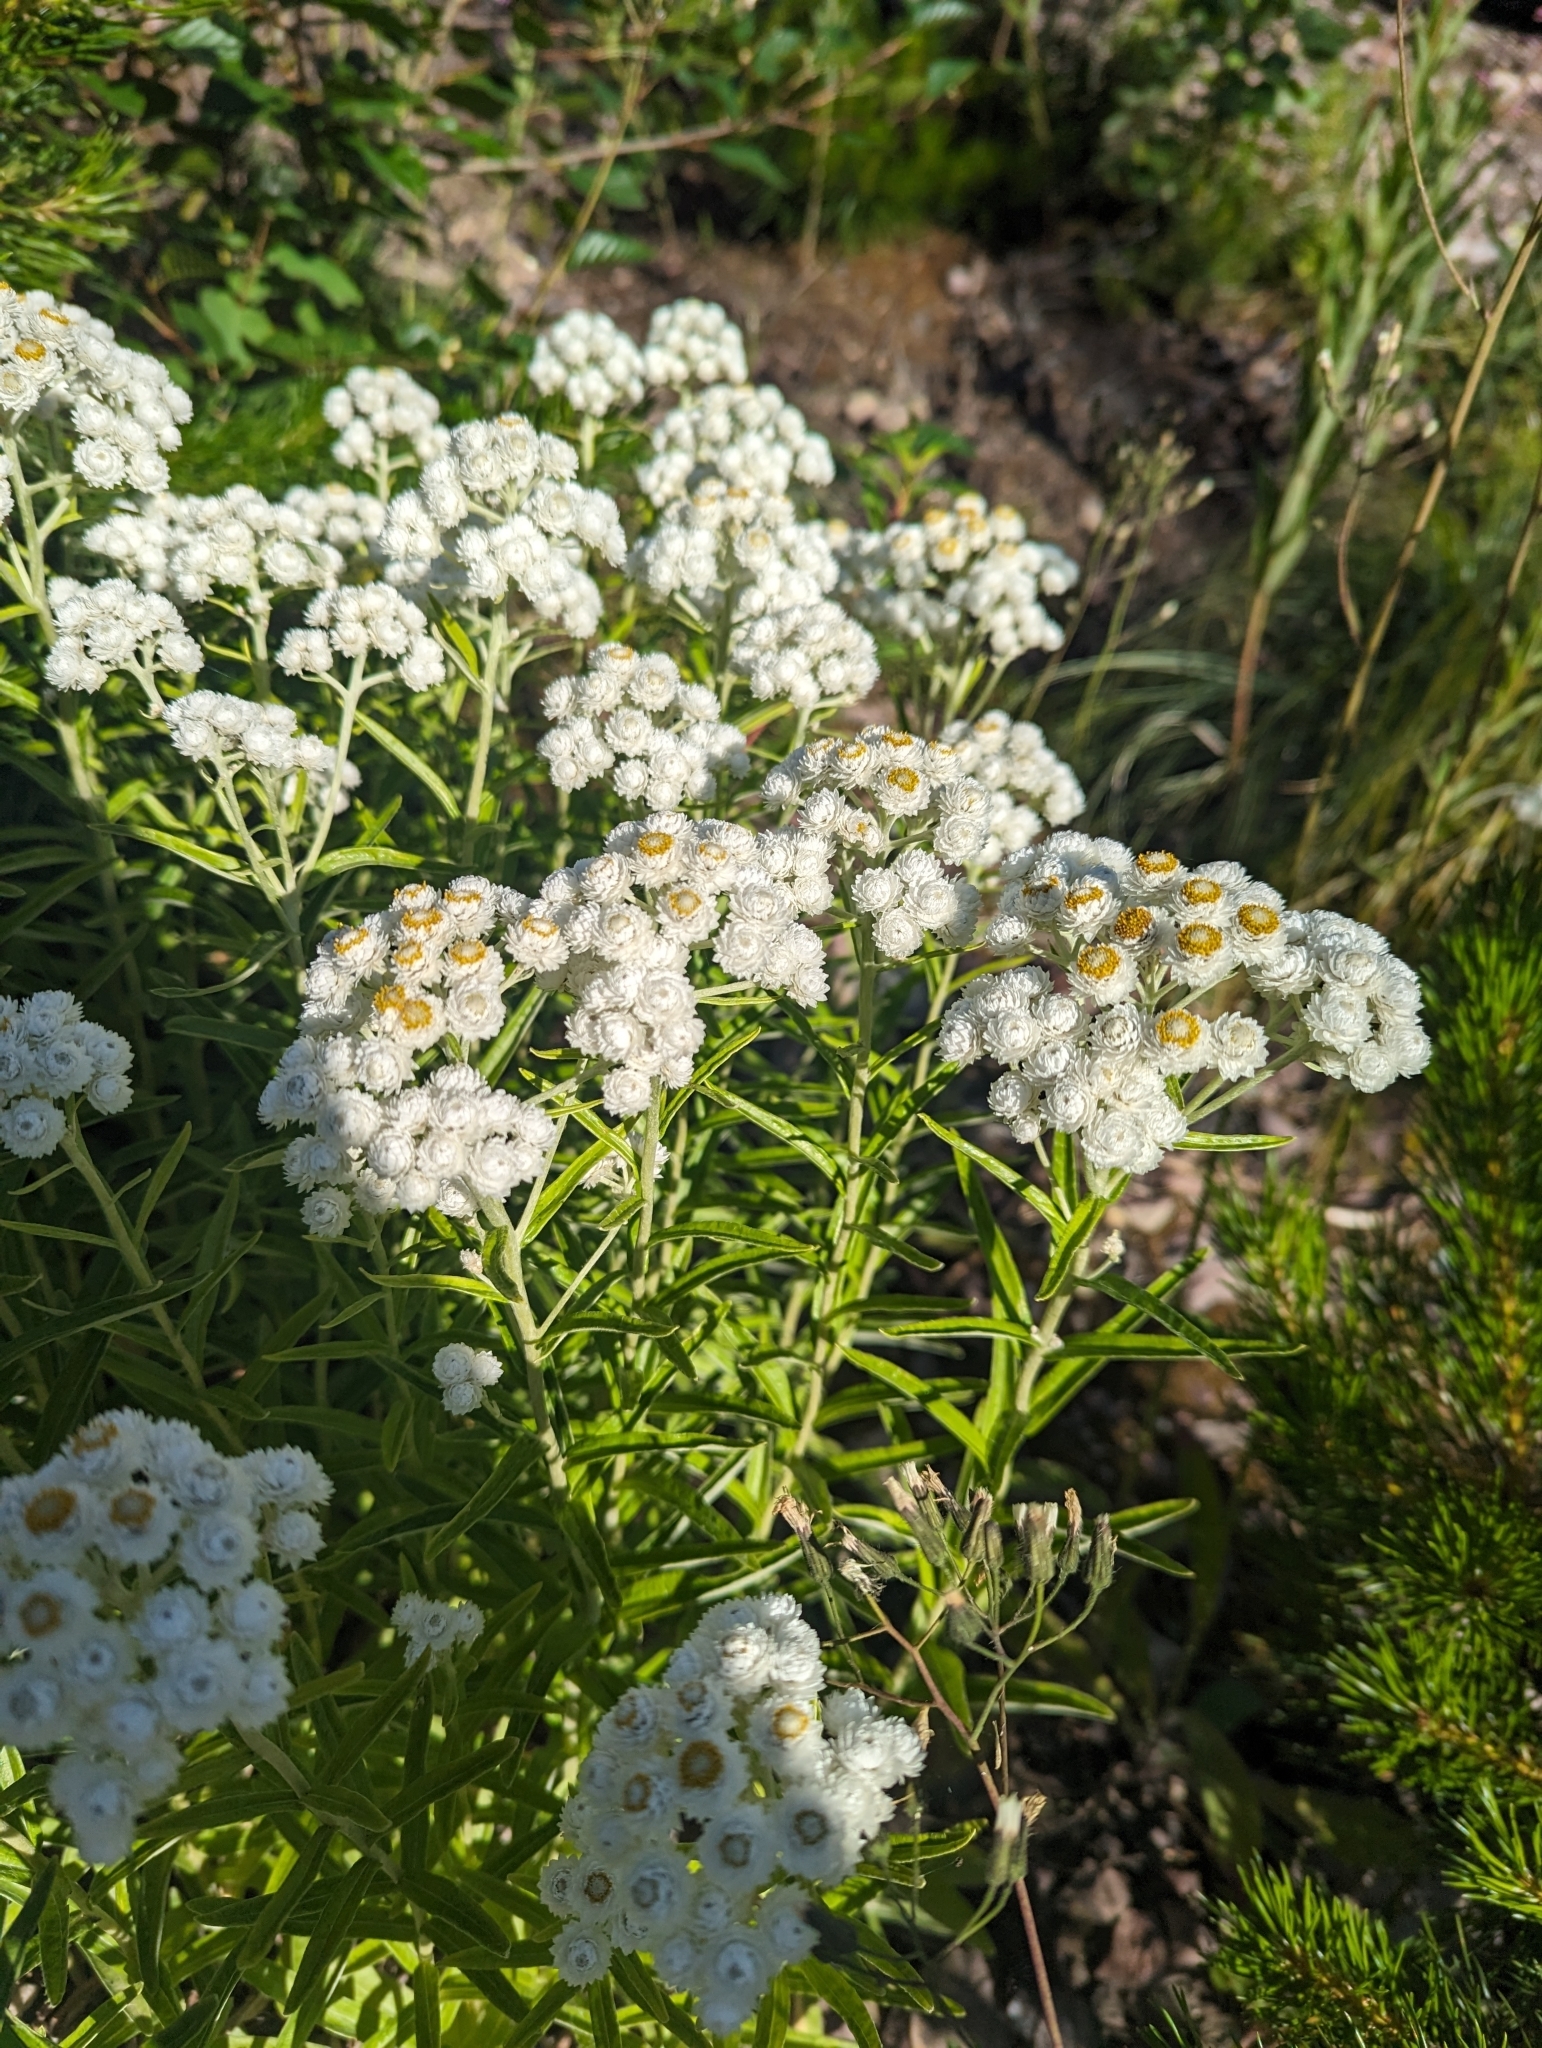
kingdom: Plantae
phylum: Tracheophyta
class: Magnoliopsida
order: Asterales
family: Asteraceae
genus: Anaphalis
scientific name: Anaphalis margaritacea
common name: Pearly everlasting
